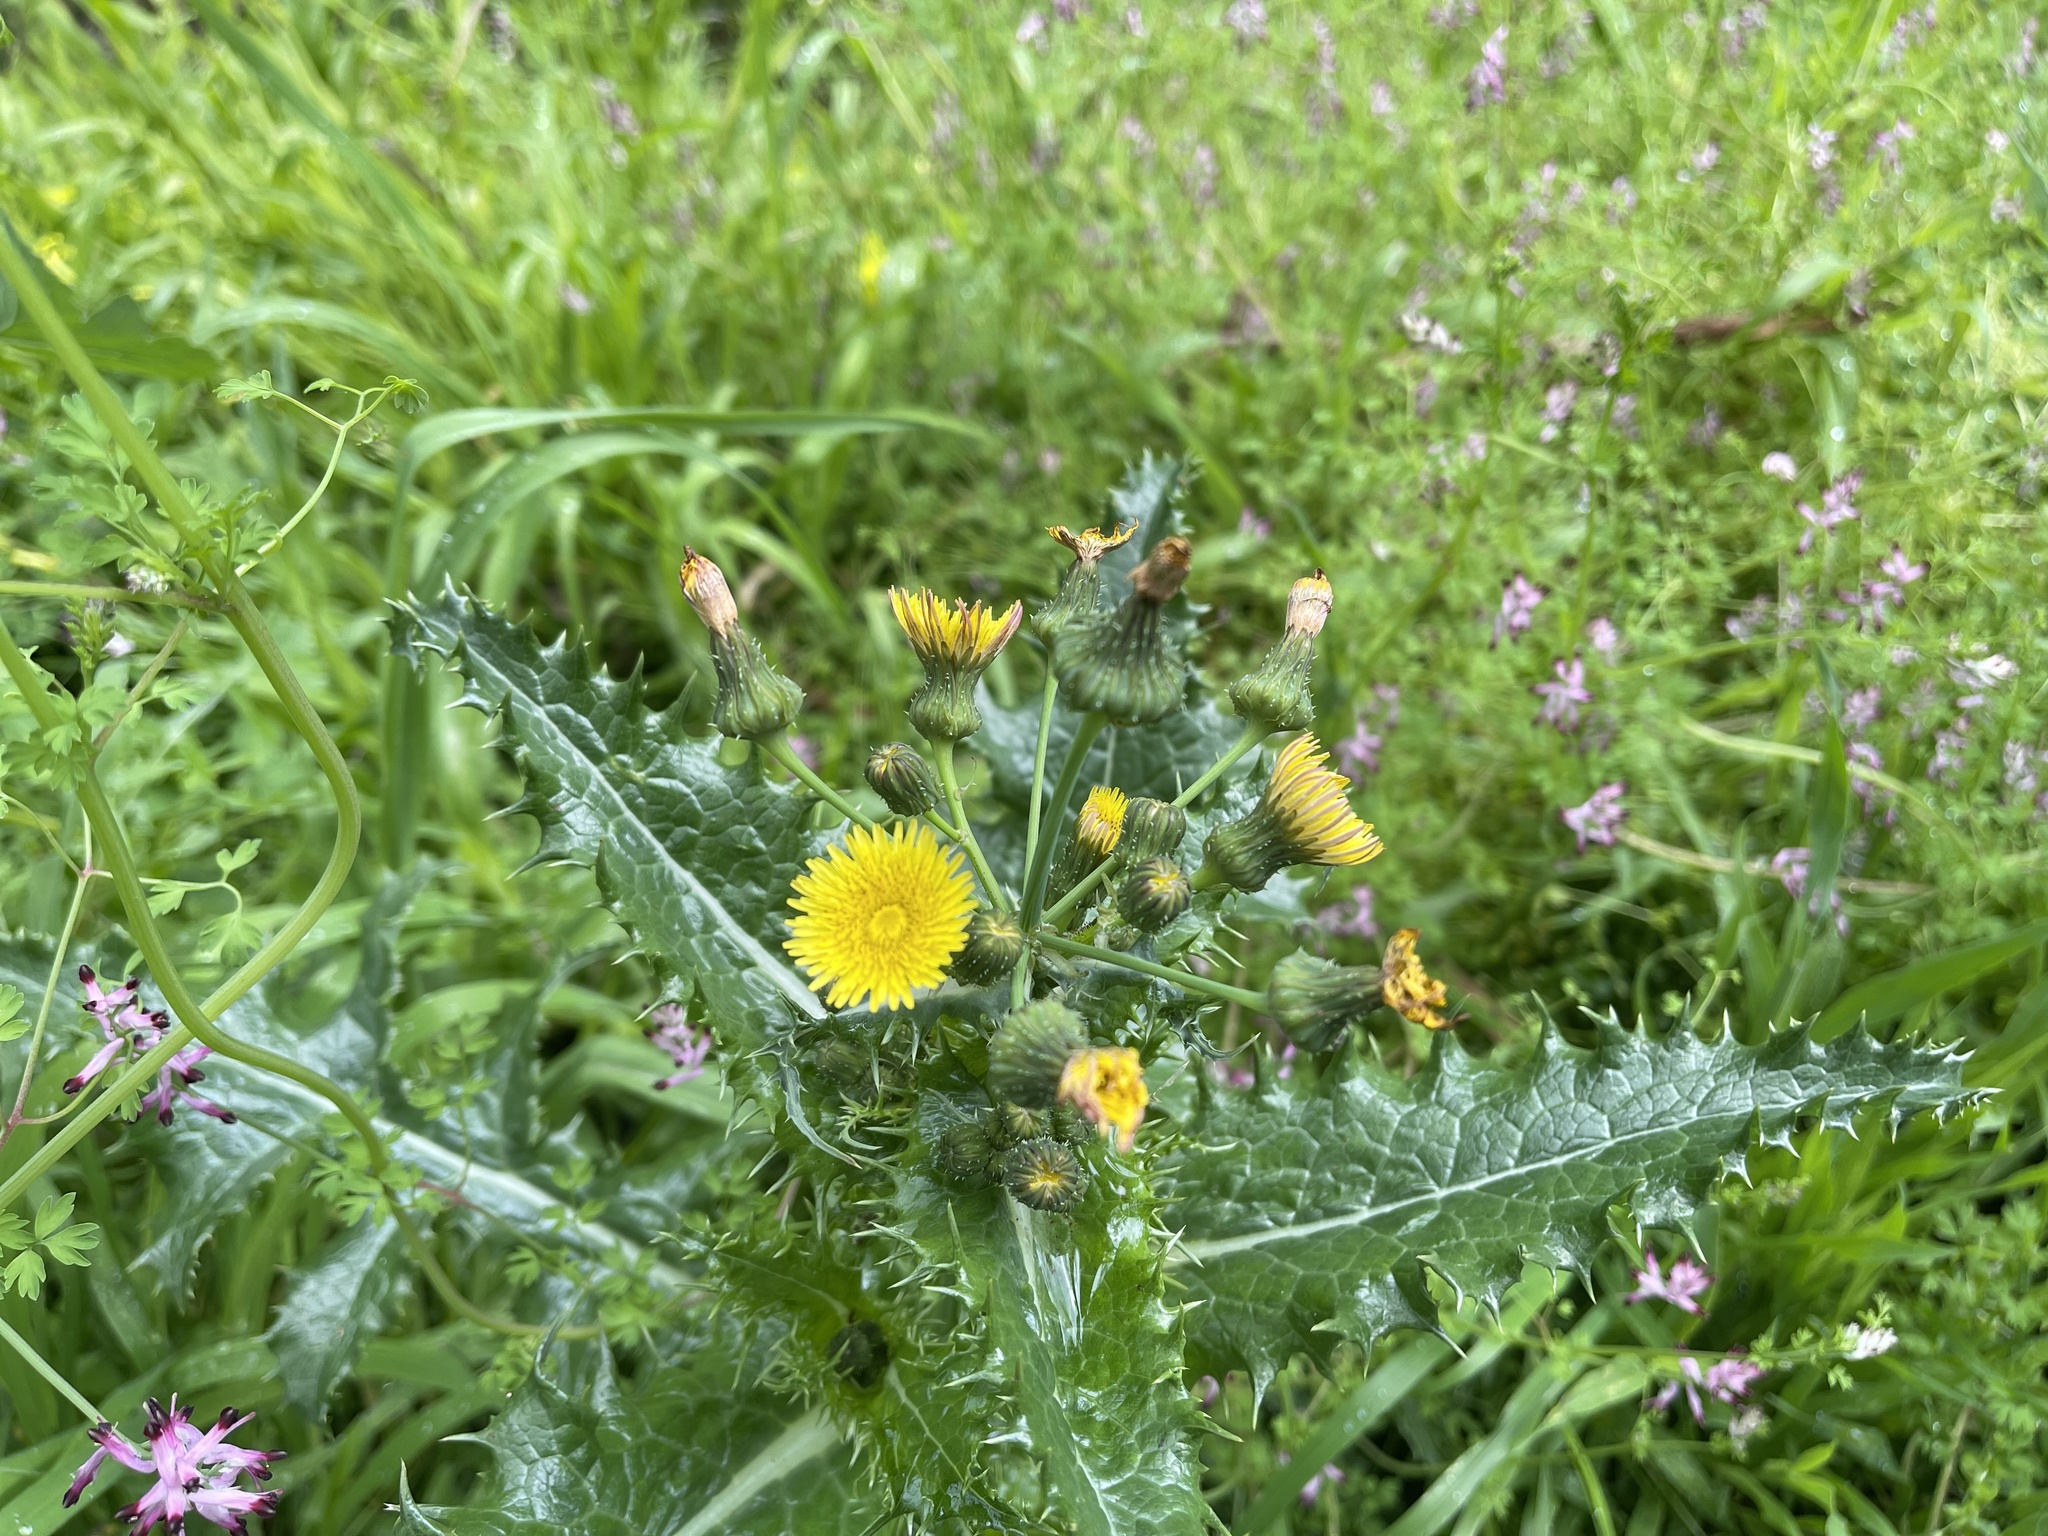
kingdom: Plantae
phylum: Tracheophyta
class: Magnoliopsida
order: Asterales
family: Asteraceae
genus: Sonchus
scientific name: Sonchus asper
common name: Prickly sow-thistle
